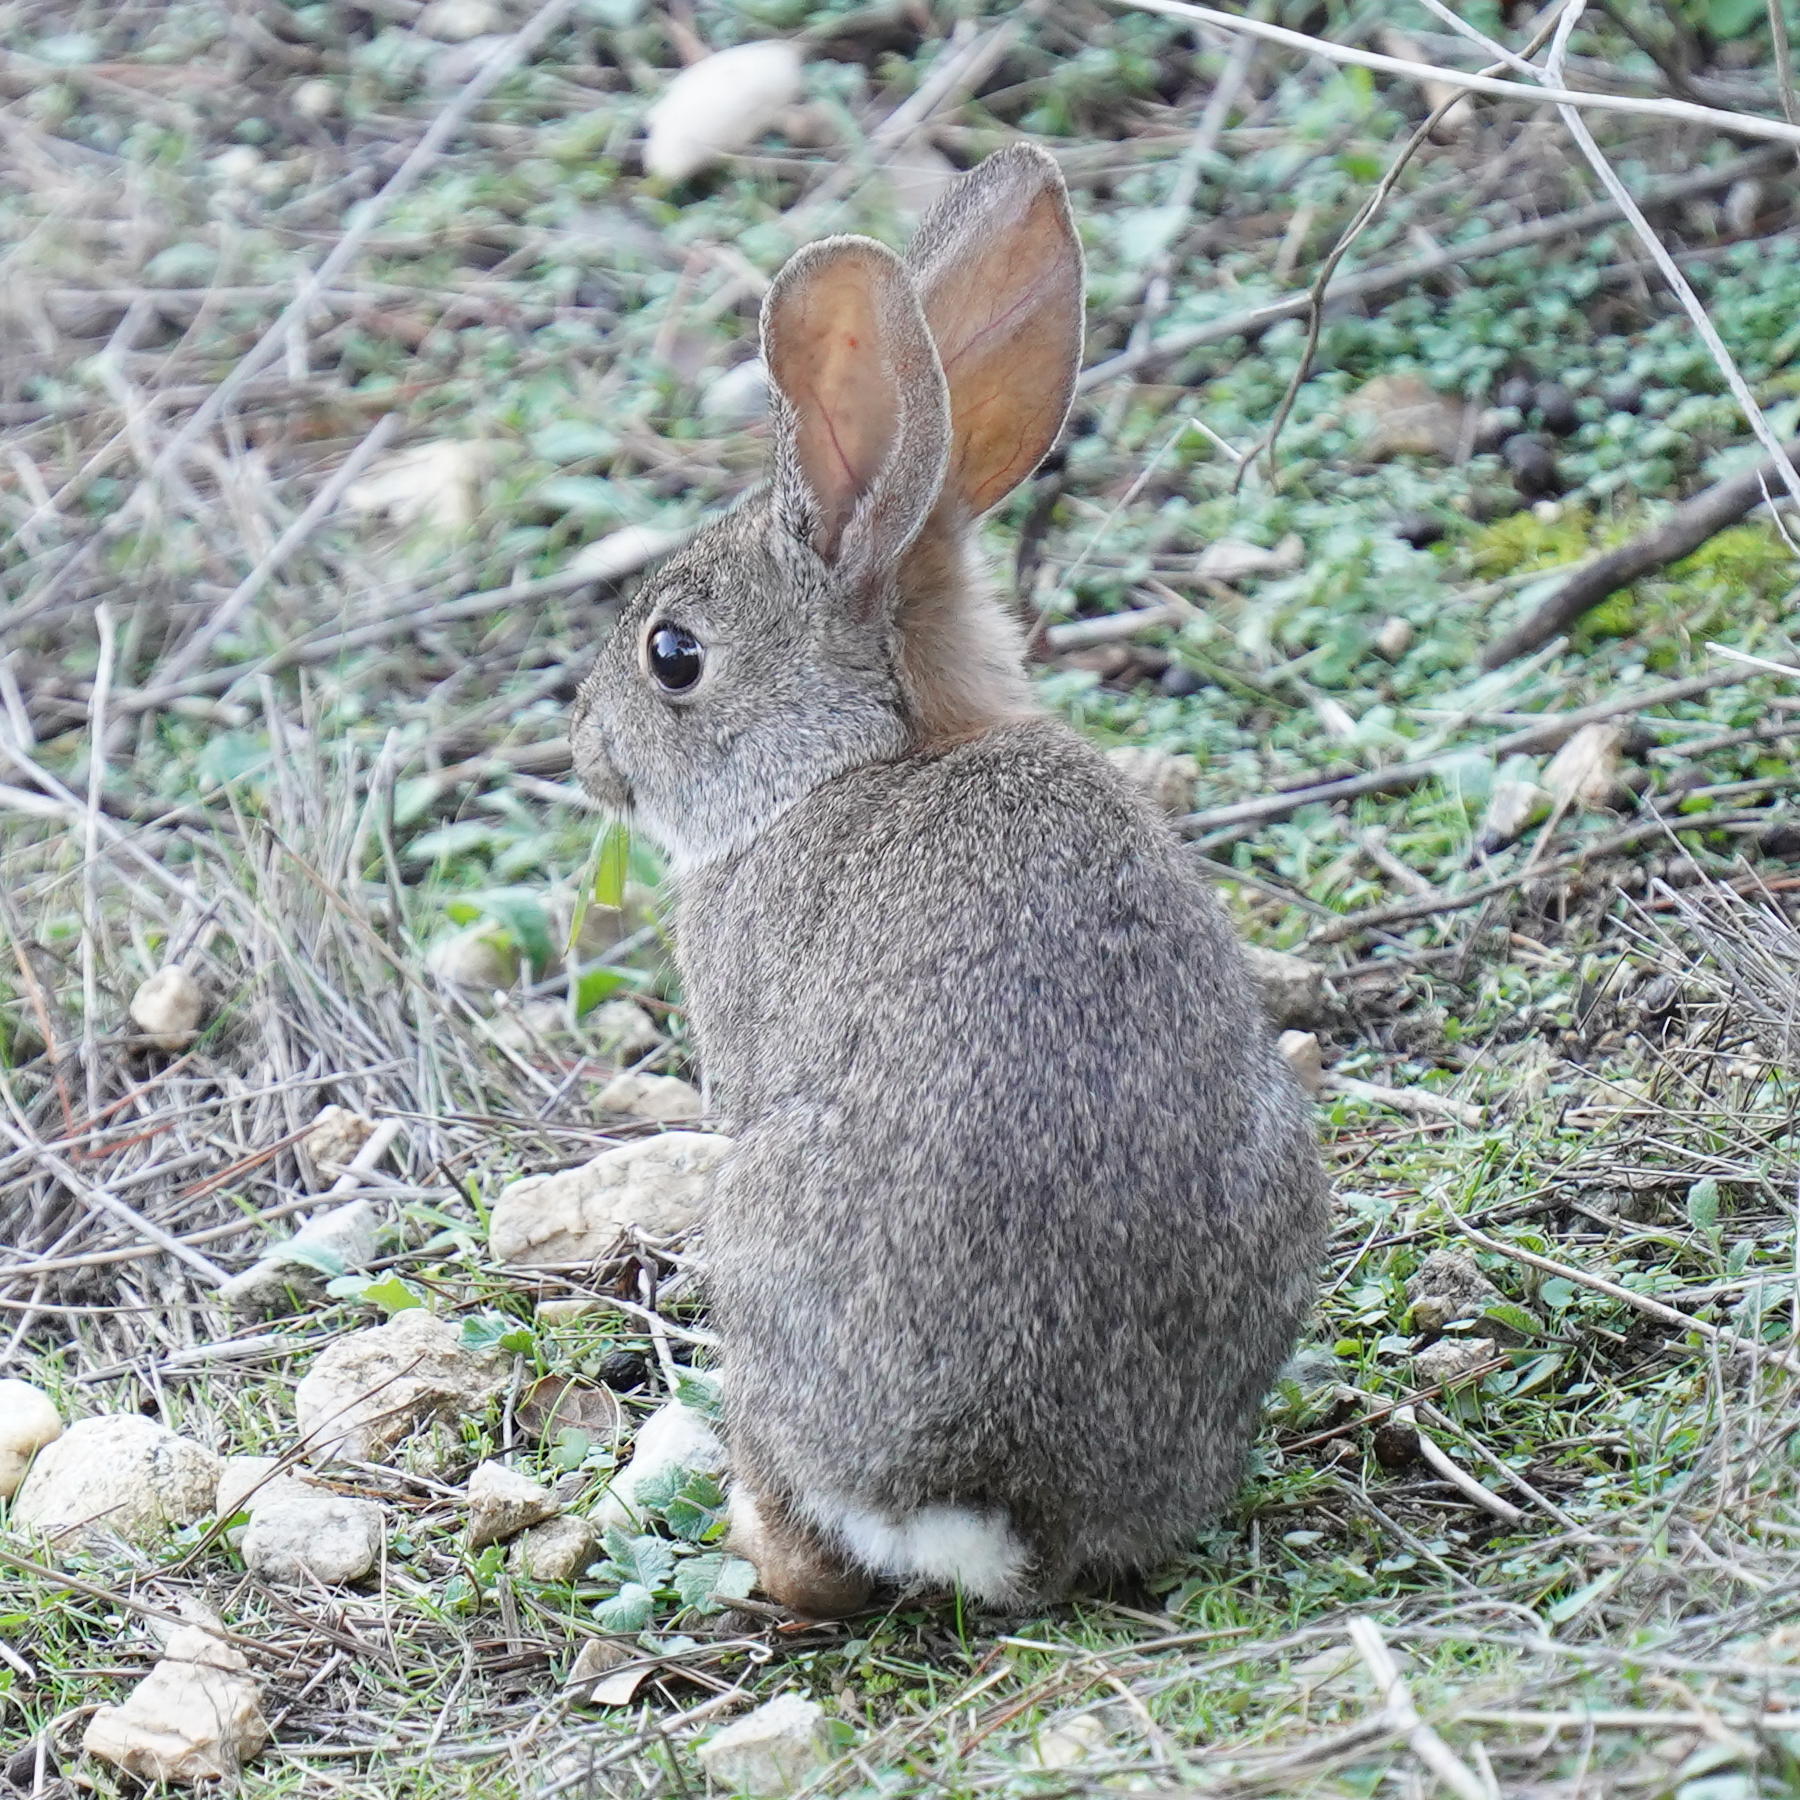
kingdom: Animalia
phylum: Chordata
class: Mammalia
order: Lagomorpha
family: Leporidae
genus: Sylvilagus
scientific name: Sylvilagus bachmani
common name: Brush rabbit
